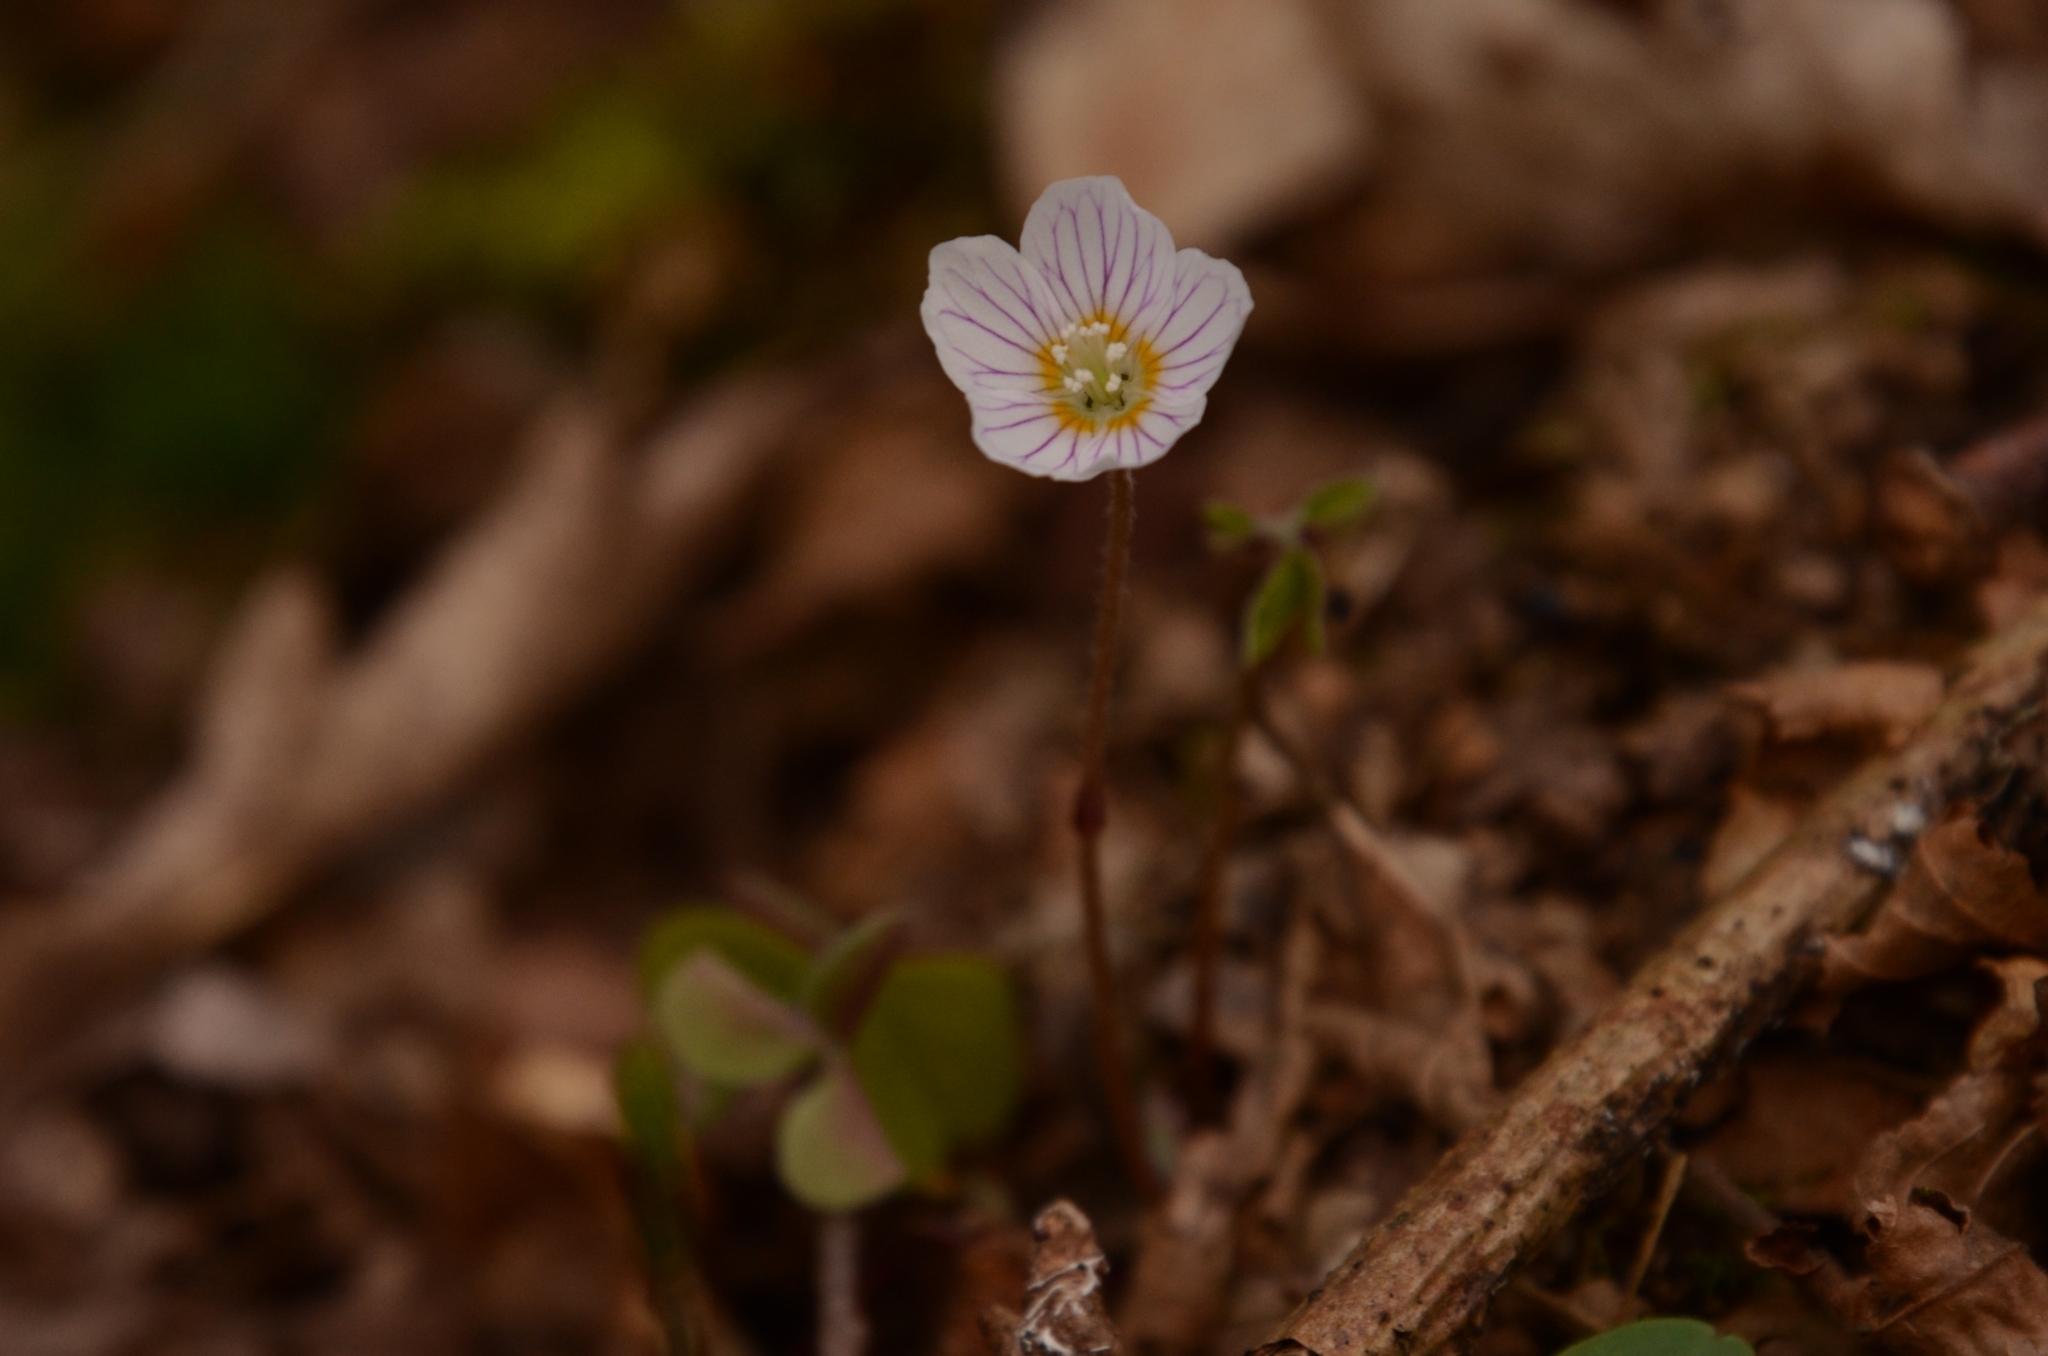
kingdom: Plantae
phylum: Tracheophyta
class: Magnoliopsida
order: Oxalidales
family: Oxalidaceae
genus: Oxalis
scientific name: Oxalis acetosella
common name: Wood-sorrel
